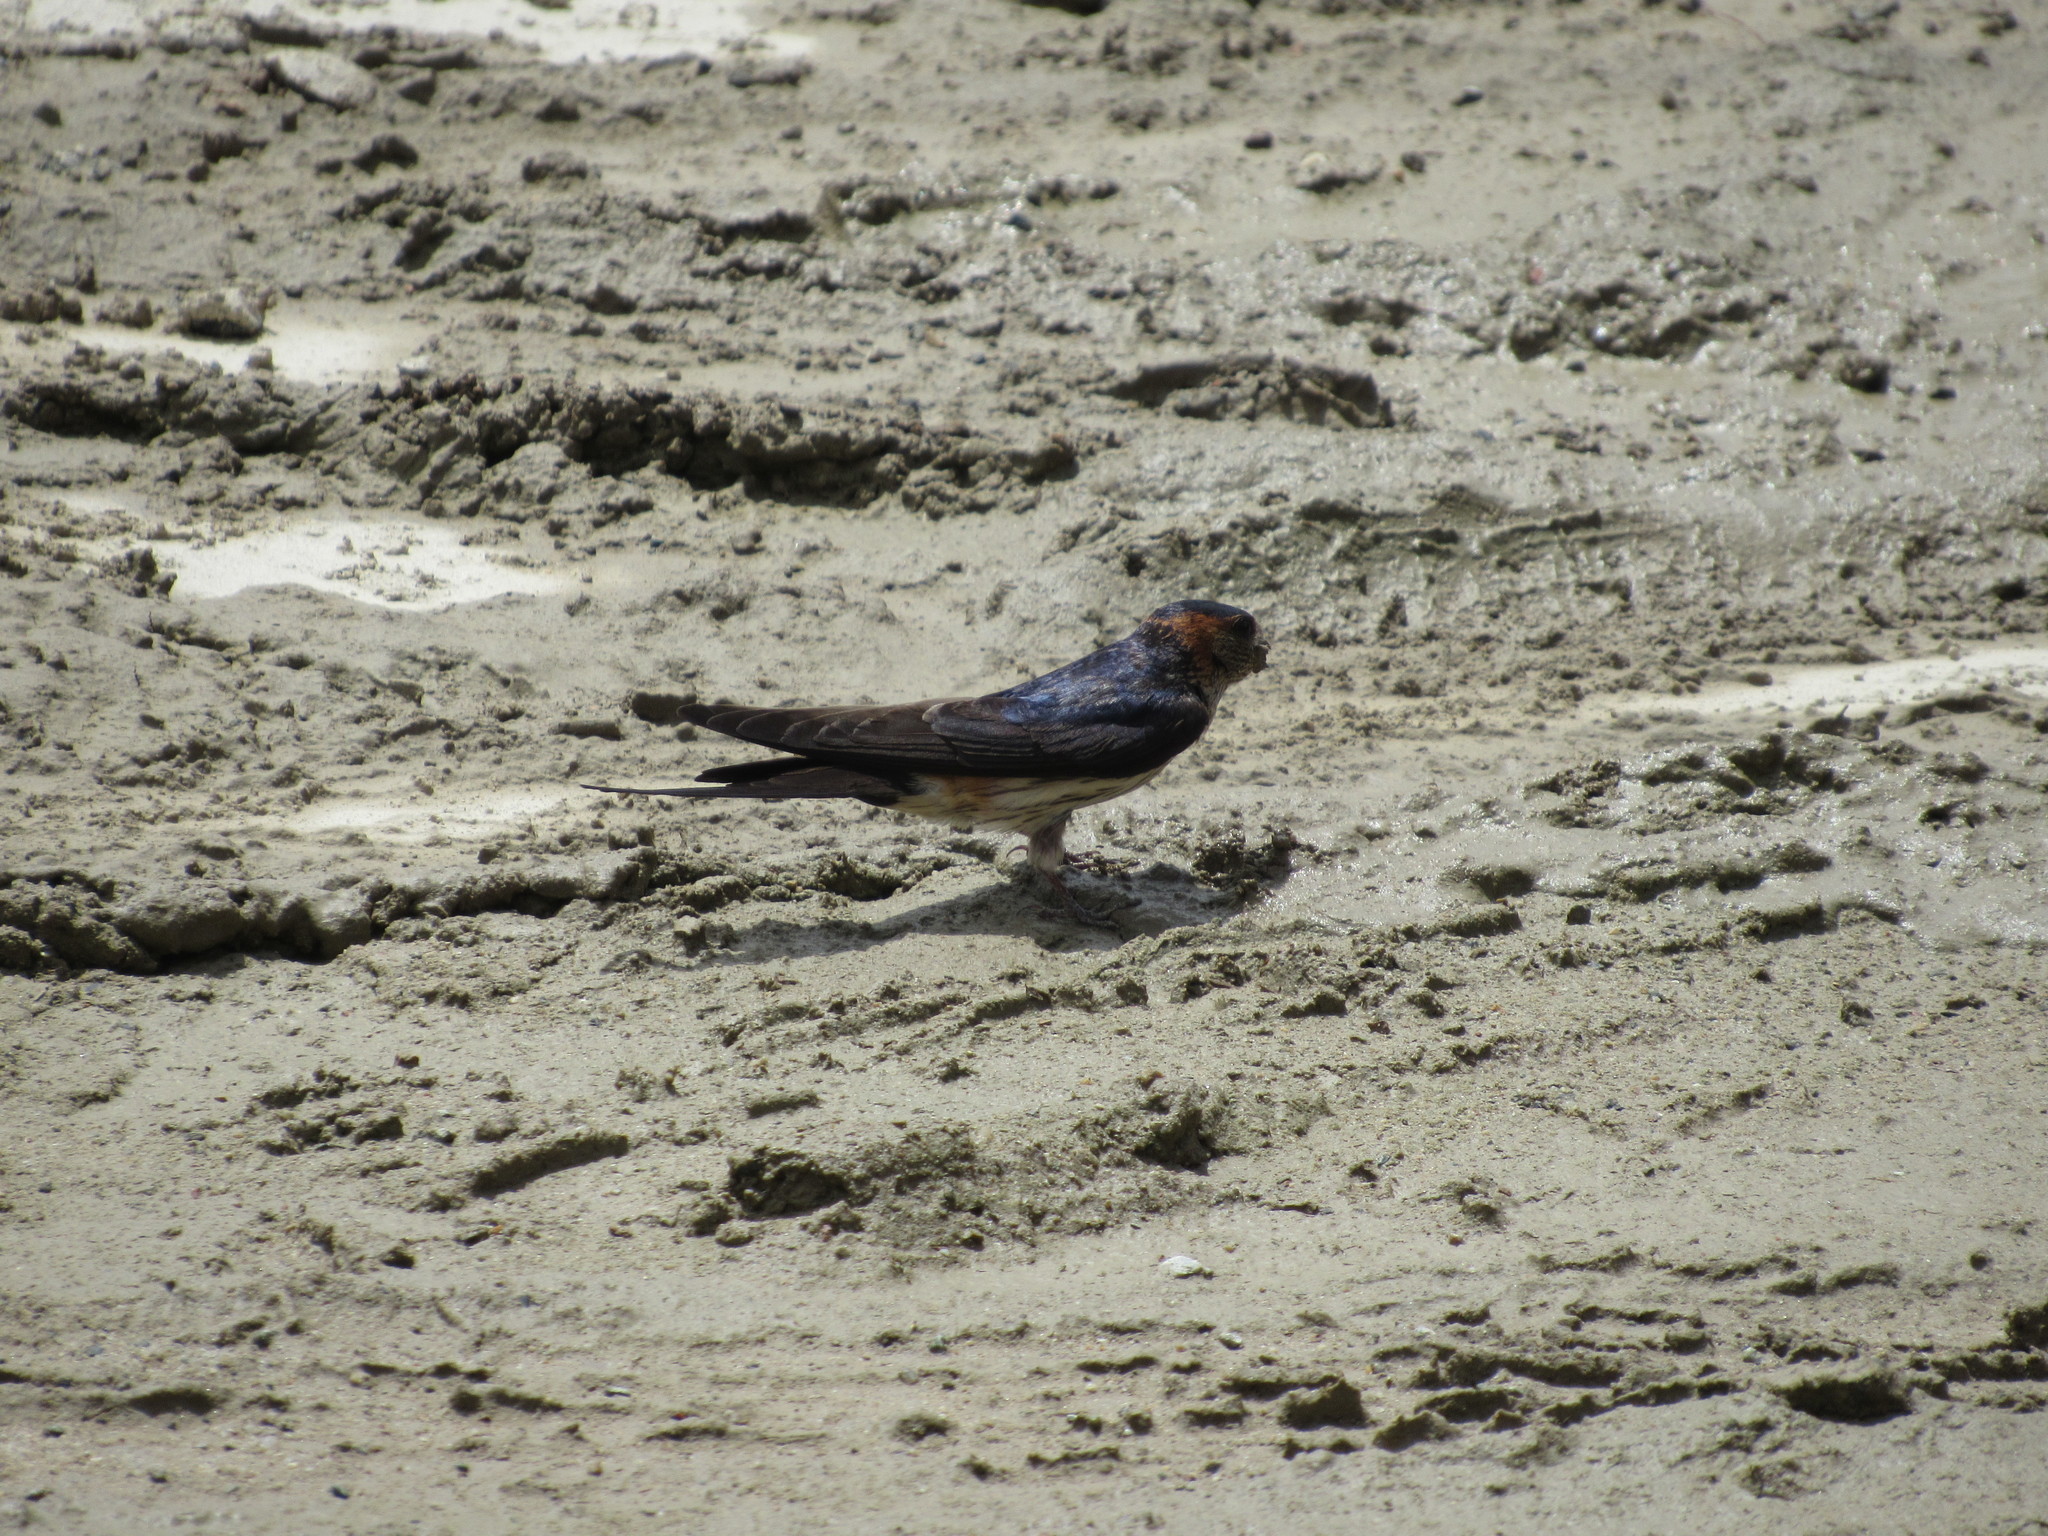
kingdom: Animalia
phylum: Chordata
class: Aves
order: Passeriformes
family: Hirundinidae
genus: Cecropis
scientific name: Cecropis daurica
